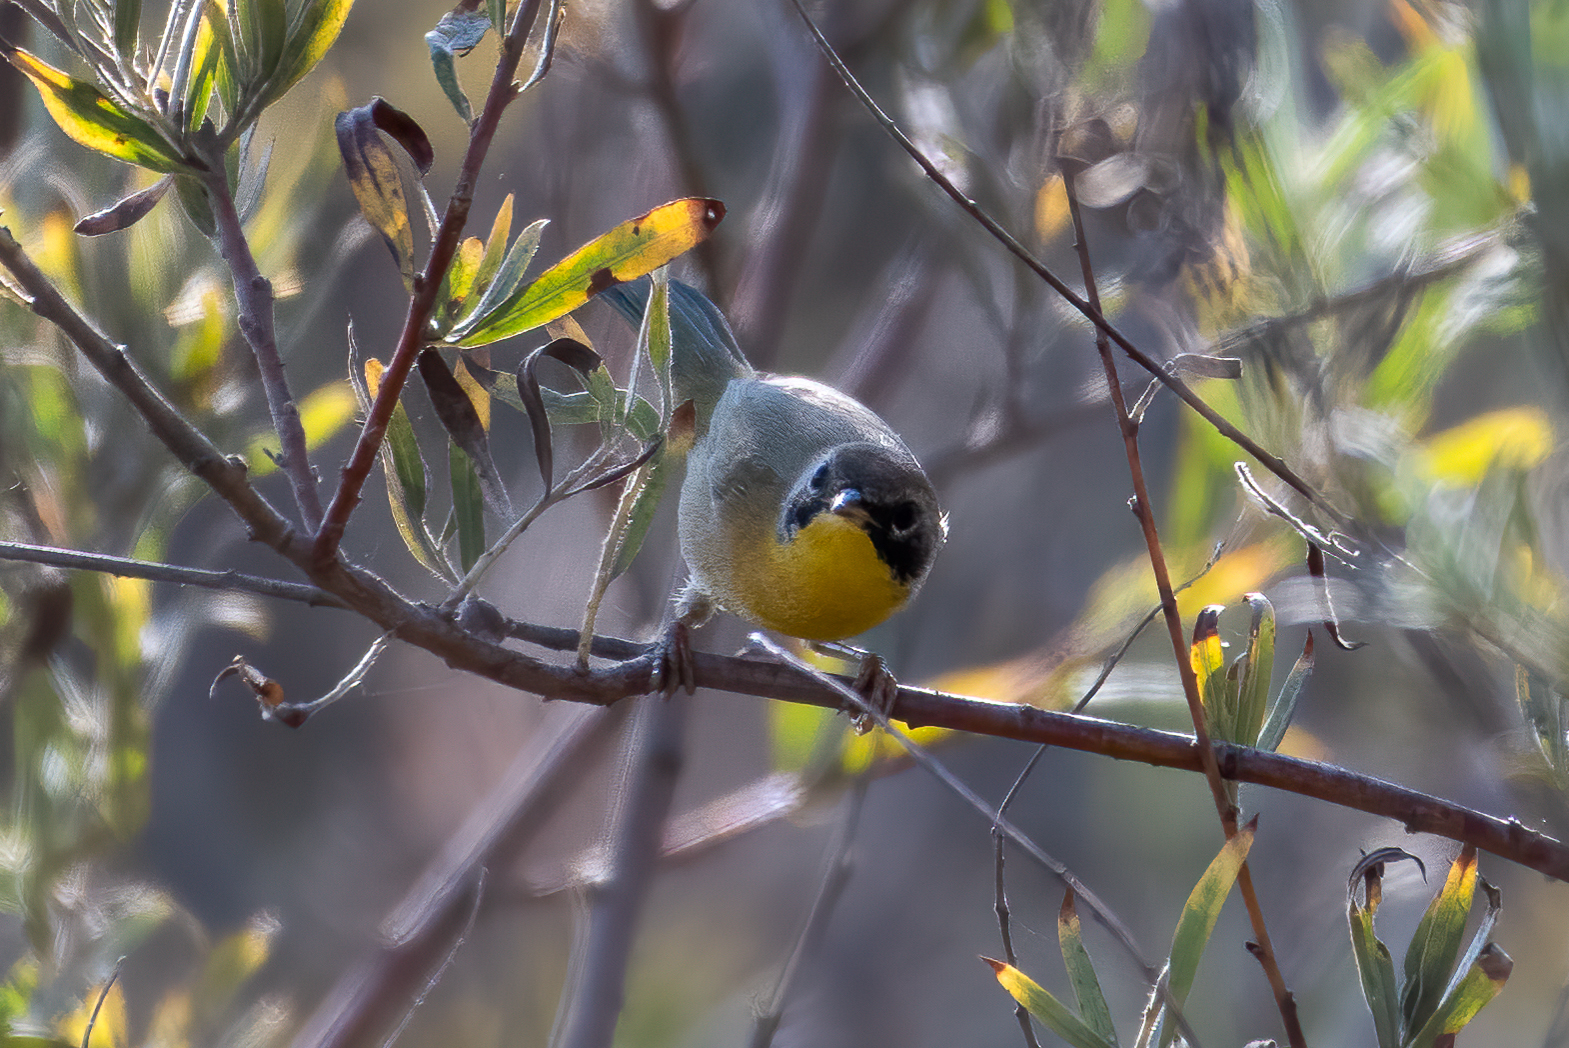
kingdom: Animalia
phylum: Chordata
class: Aves
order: Passeriformes
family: Parulidae
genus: Geothlypis
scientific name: Geothlypis trichas
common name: Common yellowthroat
